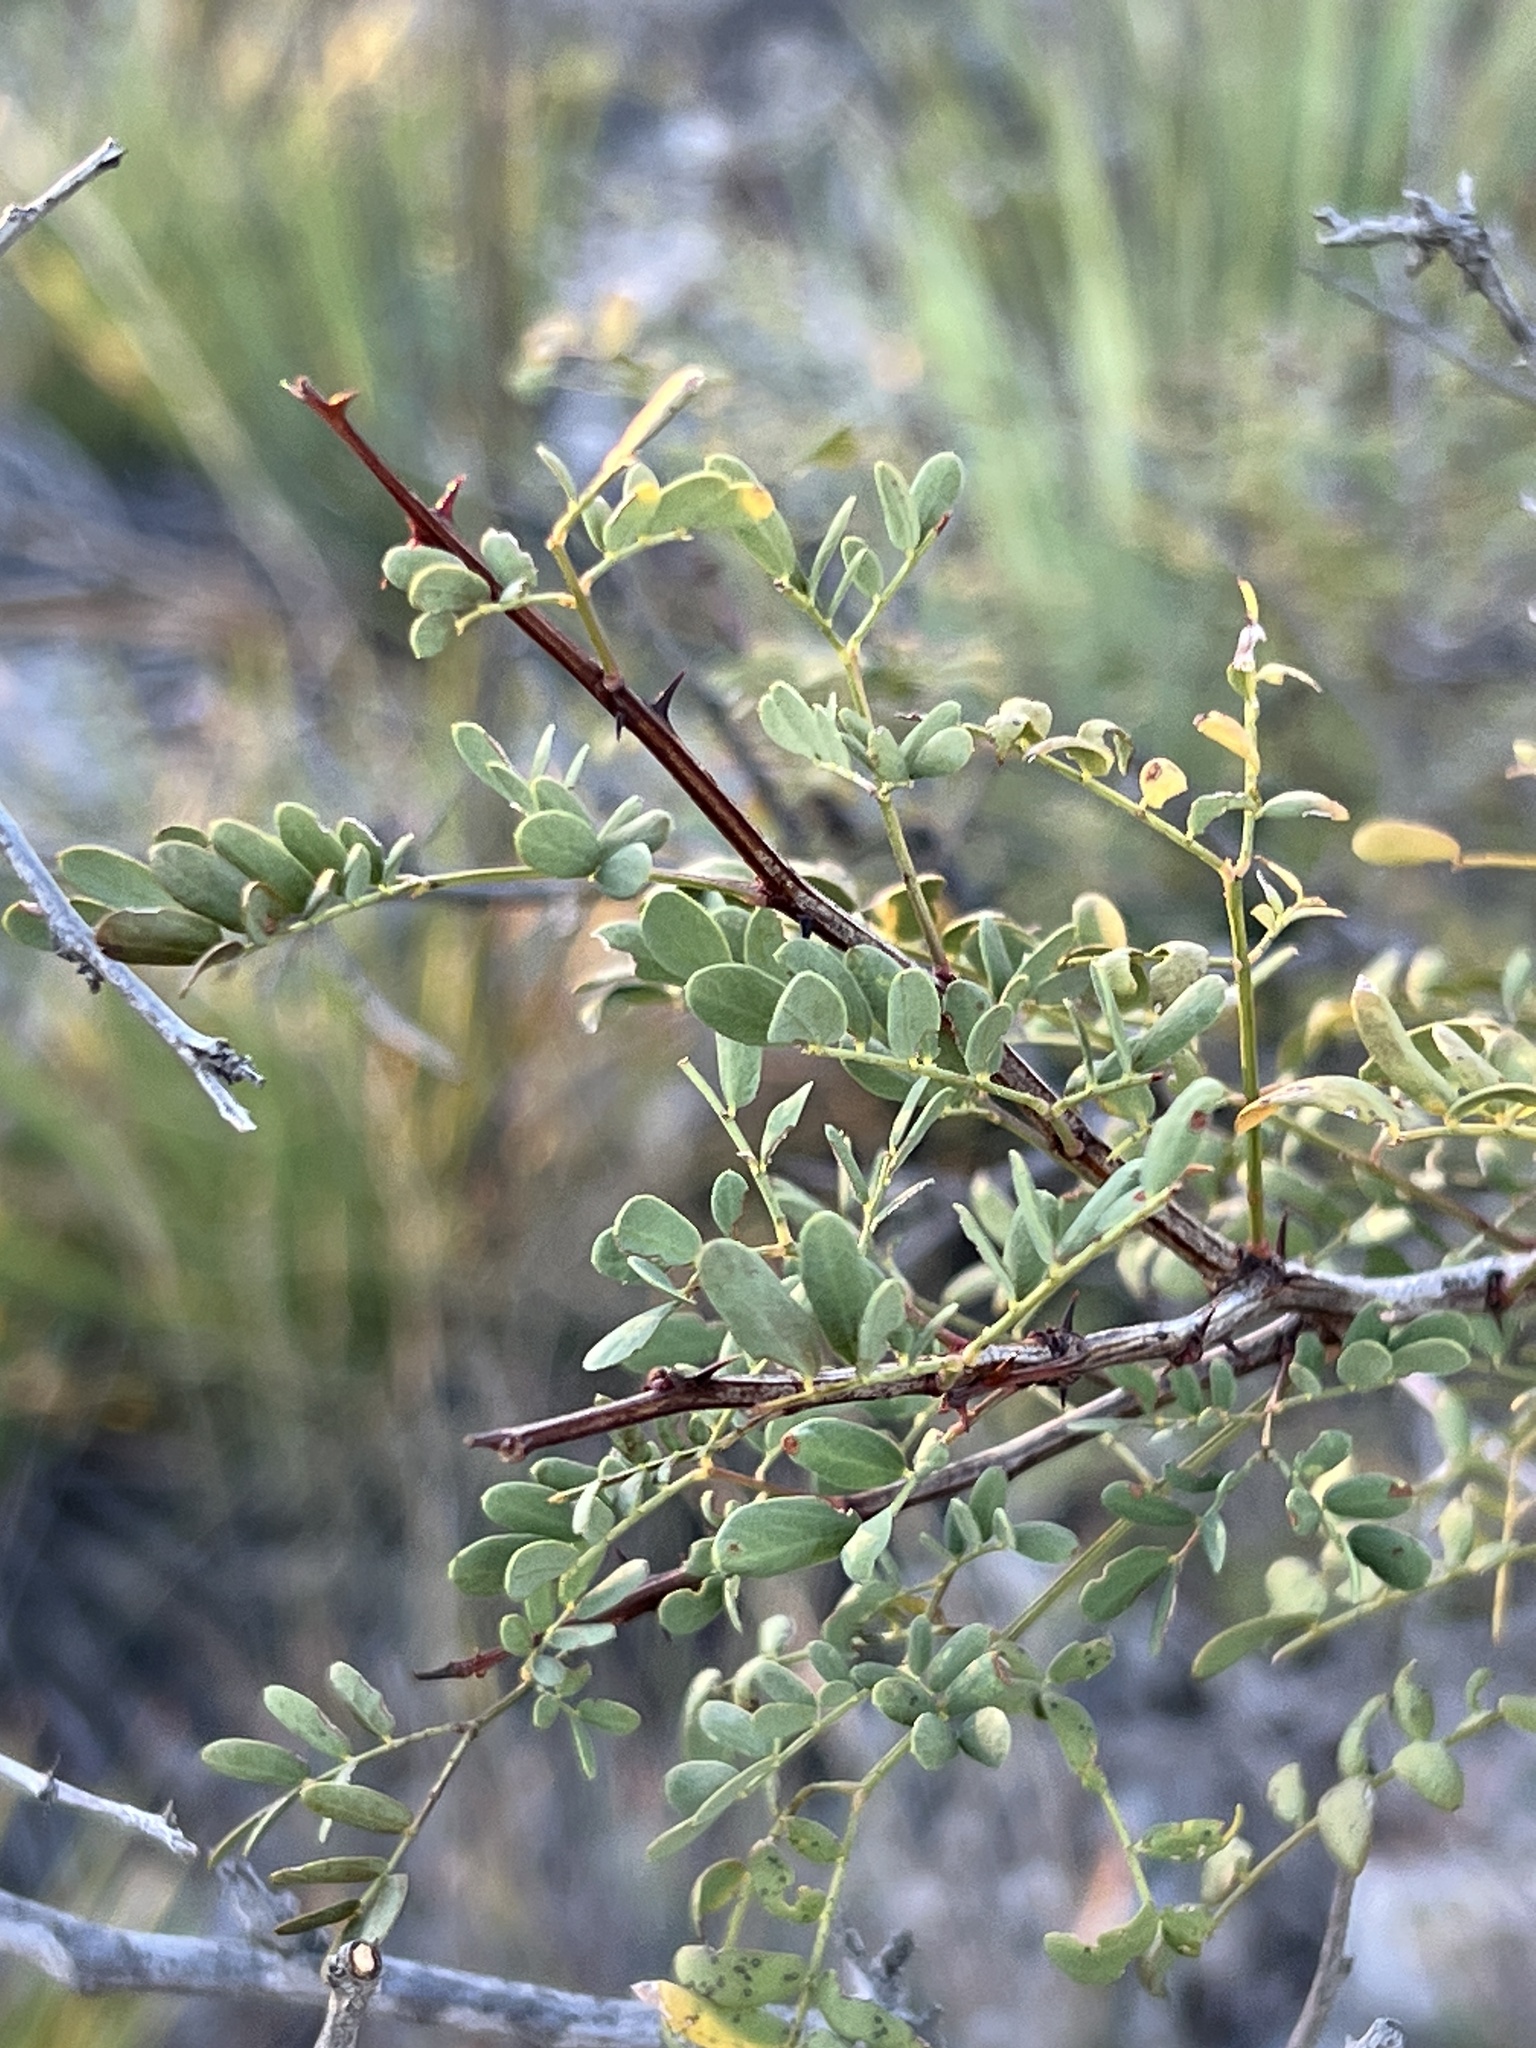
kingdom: Plantae
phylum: Tracheophyta
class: Magnoliopsida
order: Fabales
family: Fabaceae
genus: Senegalia
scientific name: Senegalia roemeriana
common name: Roemer's acacia
